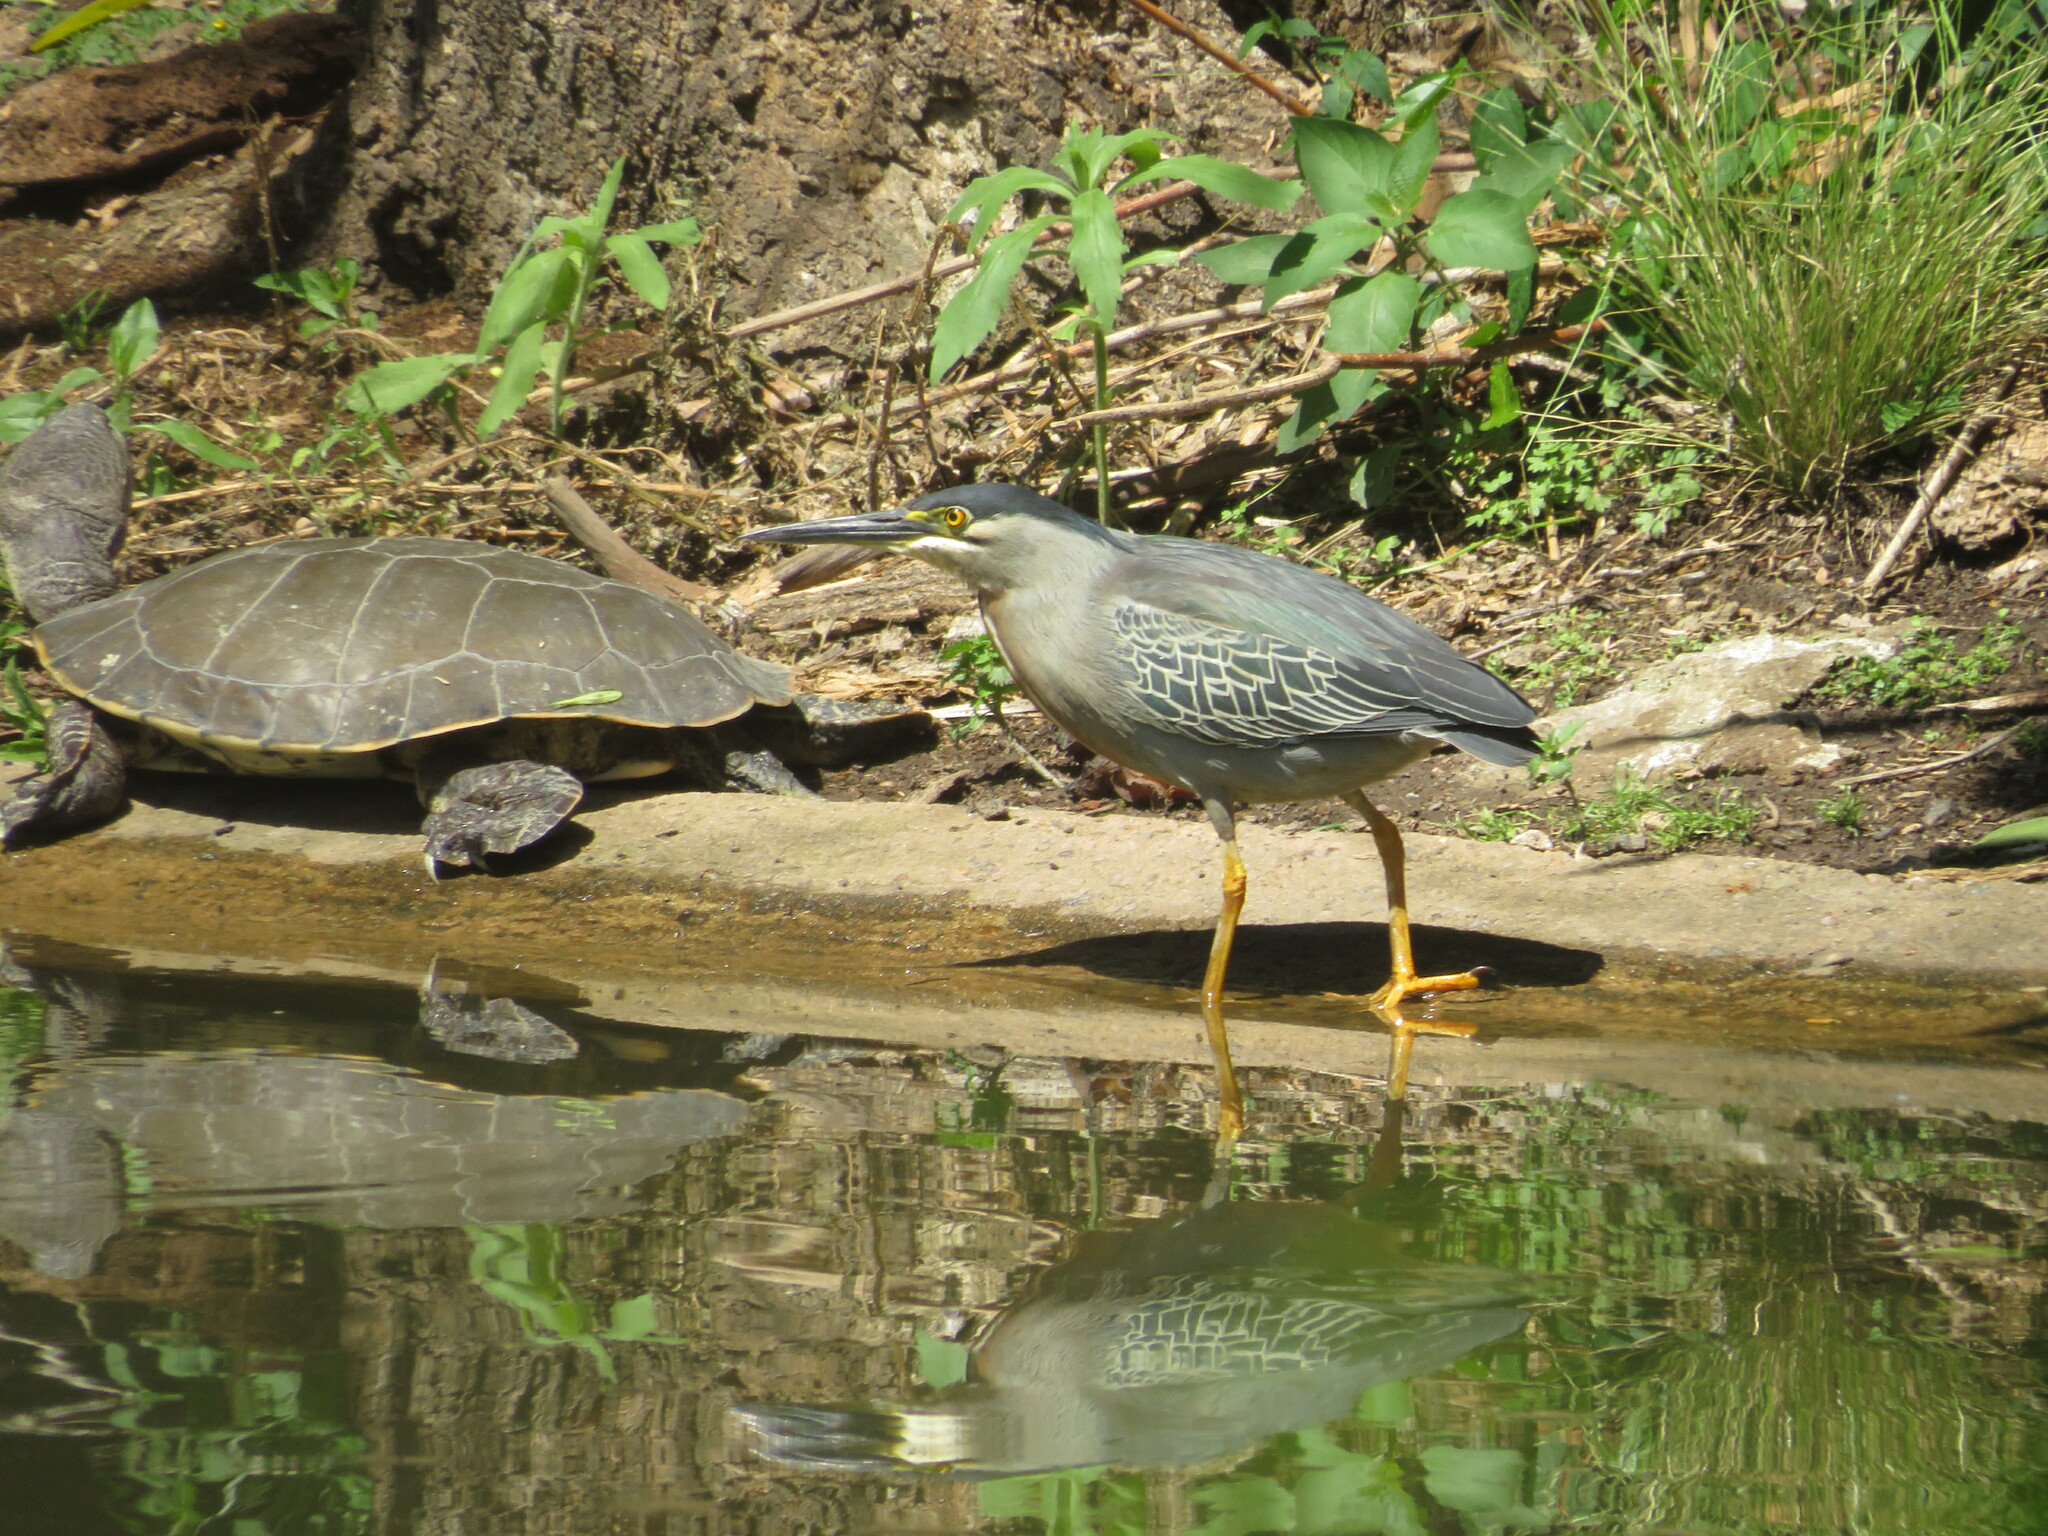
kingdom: Animalia
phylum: Chordata
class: Aves
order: Pelecaniformes
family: Ardeidae
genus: Butorides
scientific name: Butorides striata
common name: Striated heron
